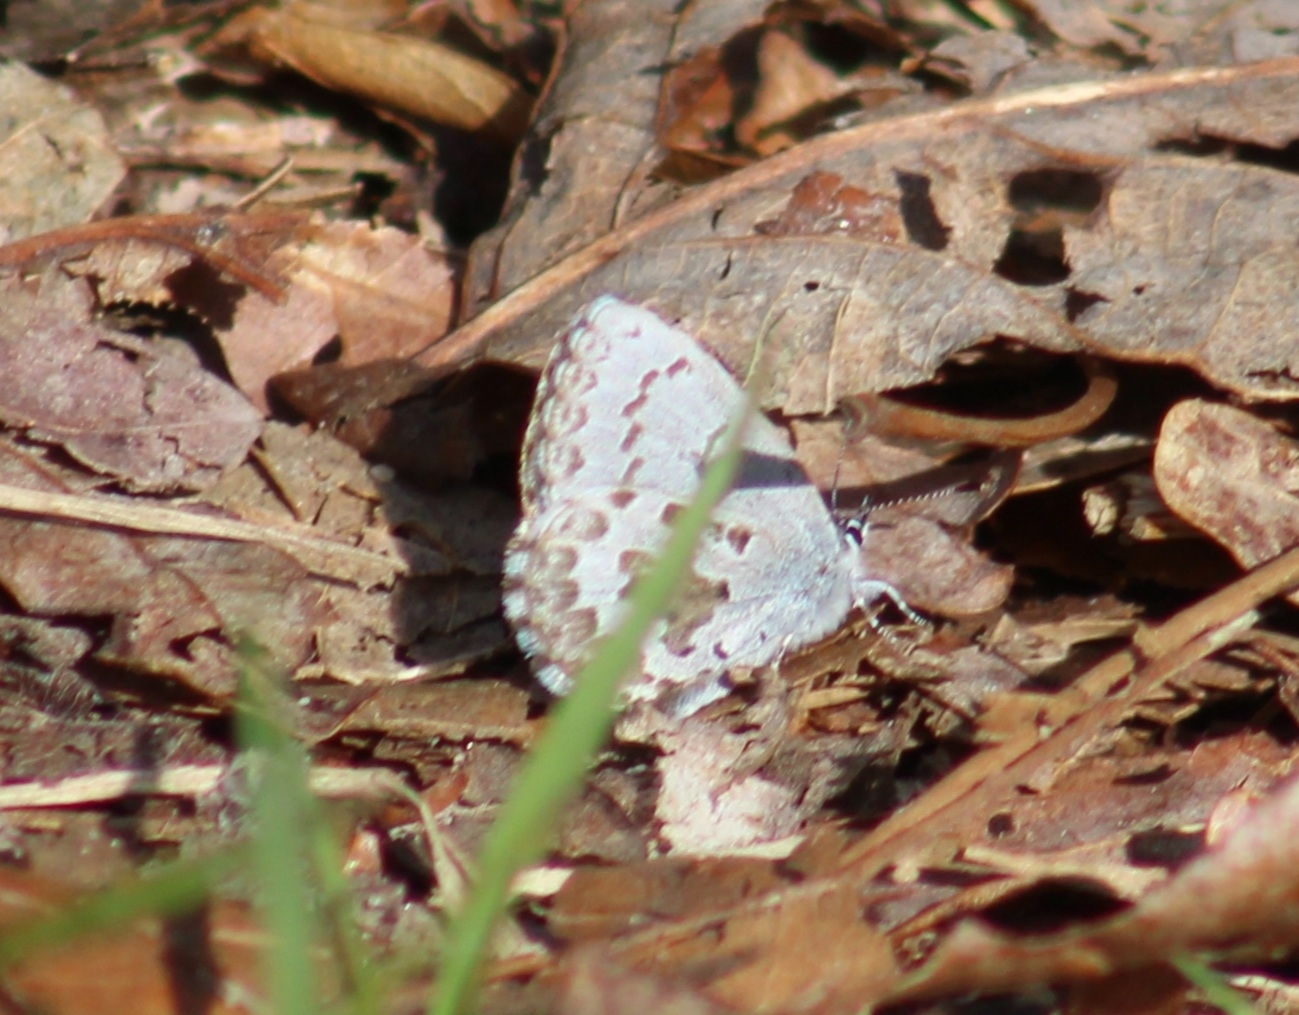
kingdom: Animalia
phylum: Arthropoda
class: Insecta
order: Lepidoptera
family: Lycaenidae
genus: Celastrina
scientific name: Celastrina ladon
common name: Spring azure
